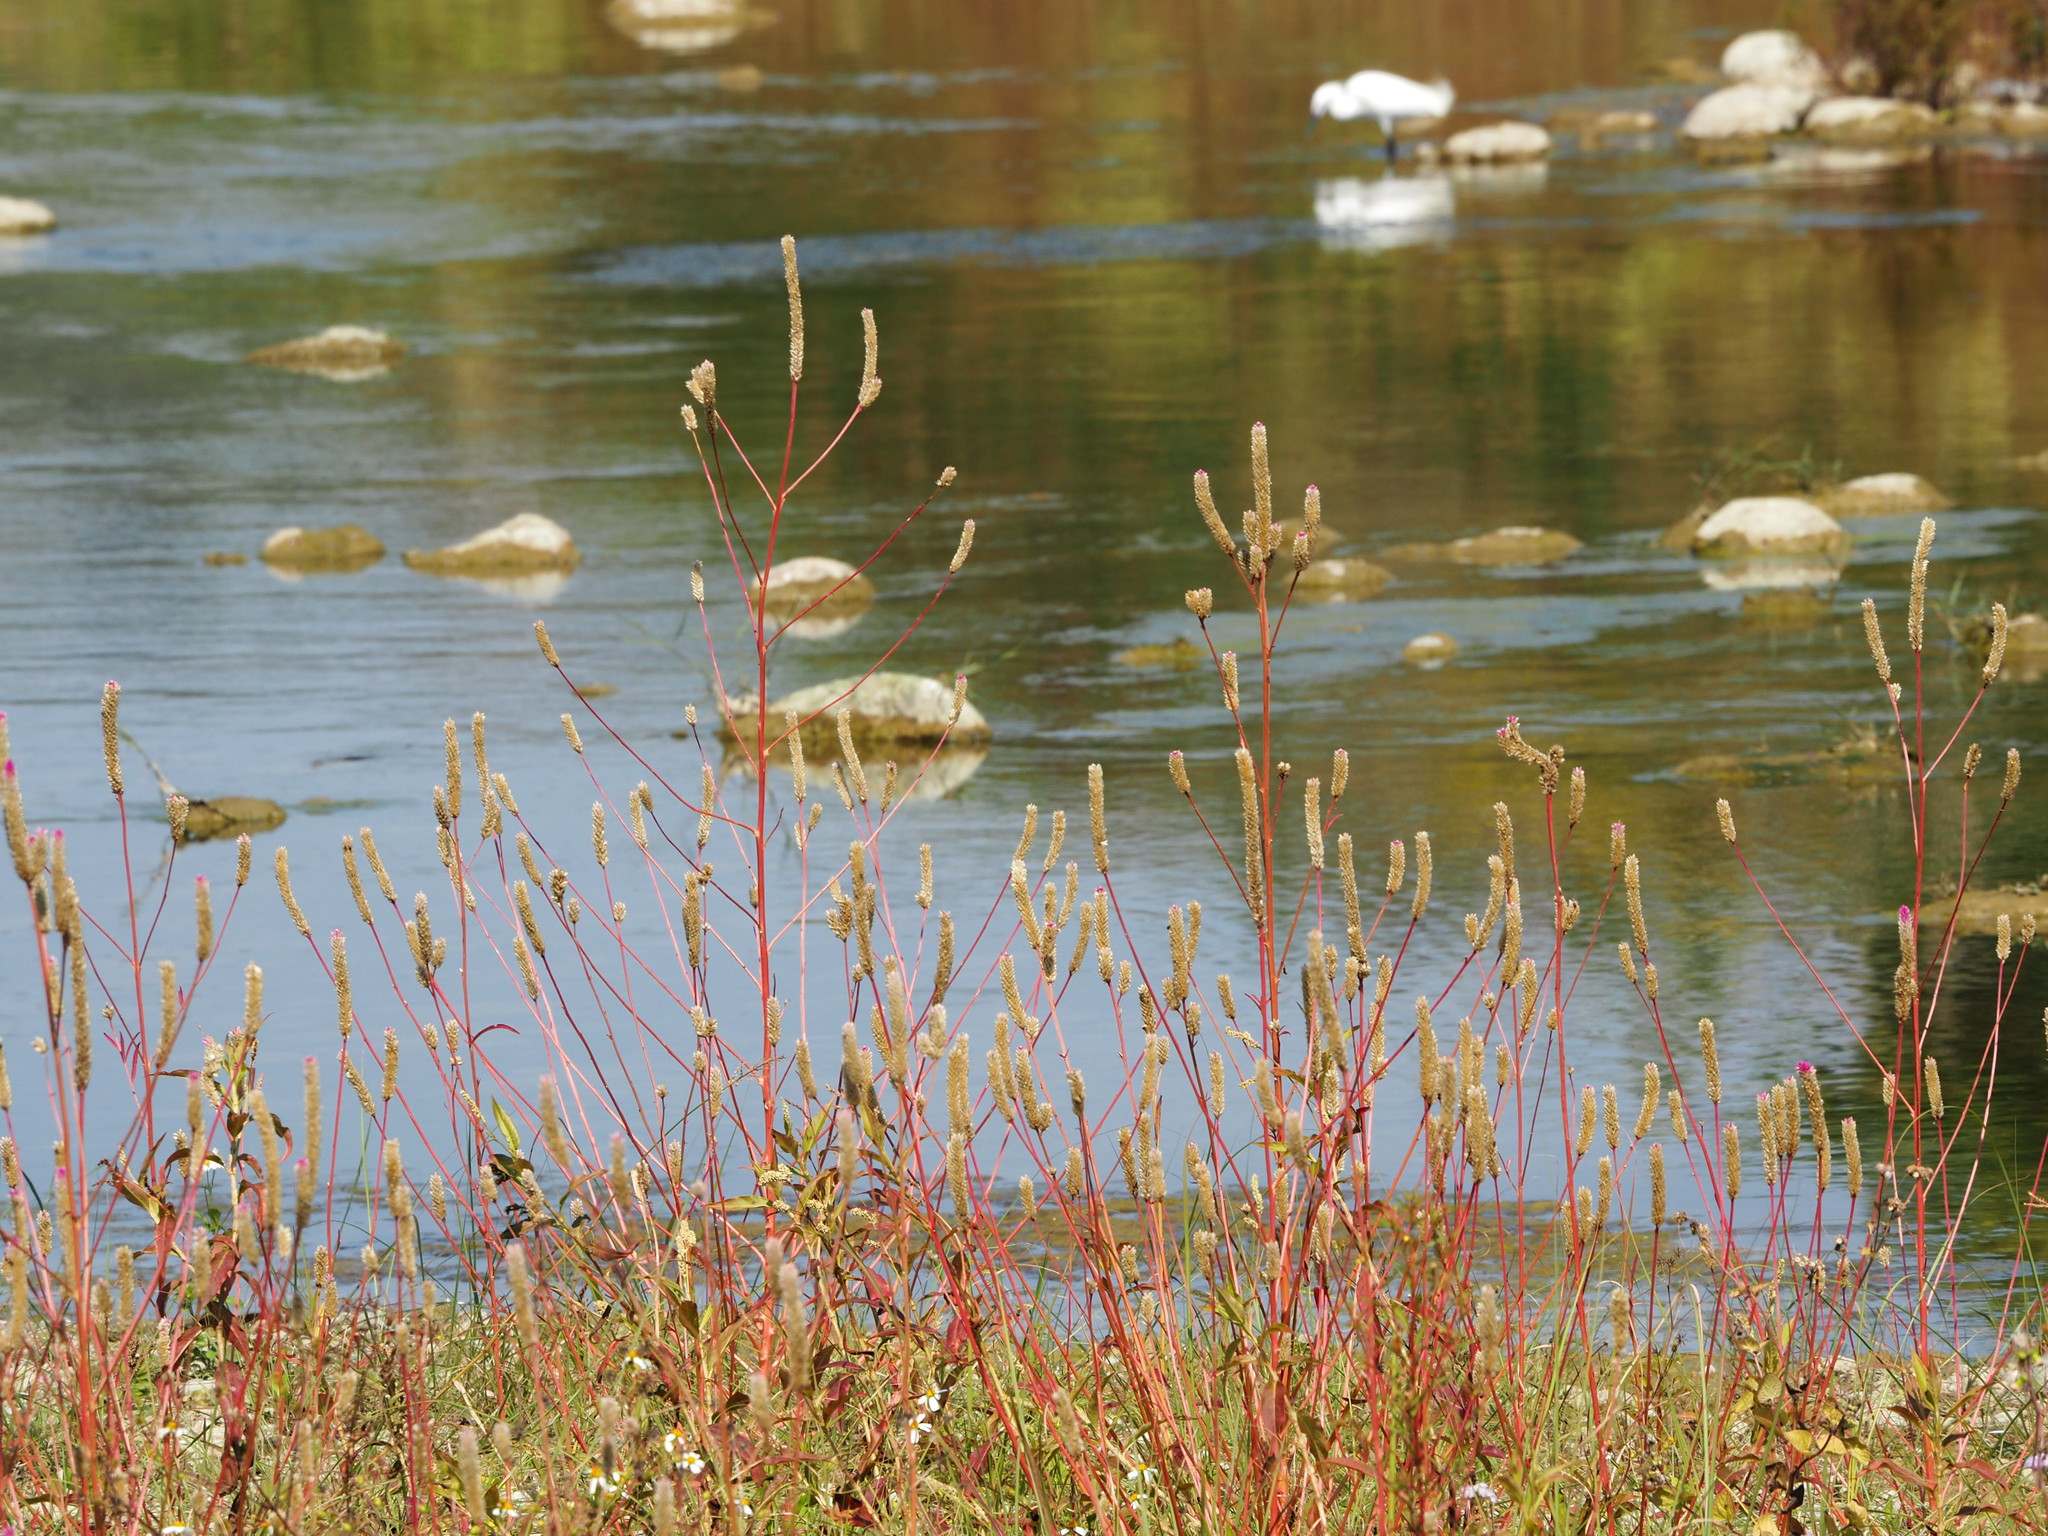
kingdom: Plantae
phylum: Tracheophyta
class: Magnoliopsida
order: Caryophyllales
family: Amaranthaceae
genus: Celosia
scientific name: Celosia argentea
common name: Feather cockscomb
